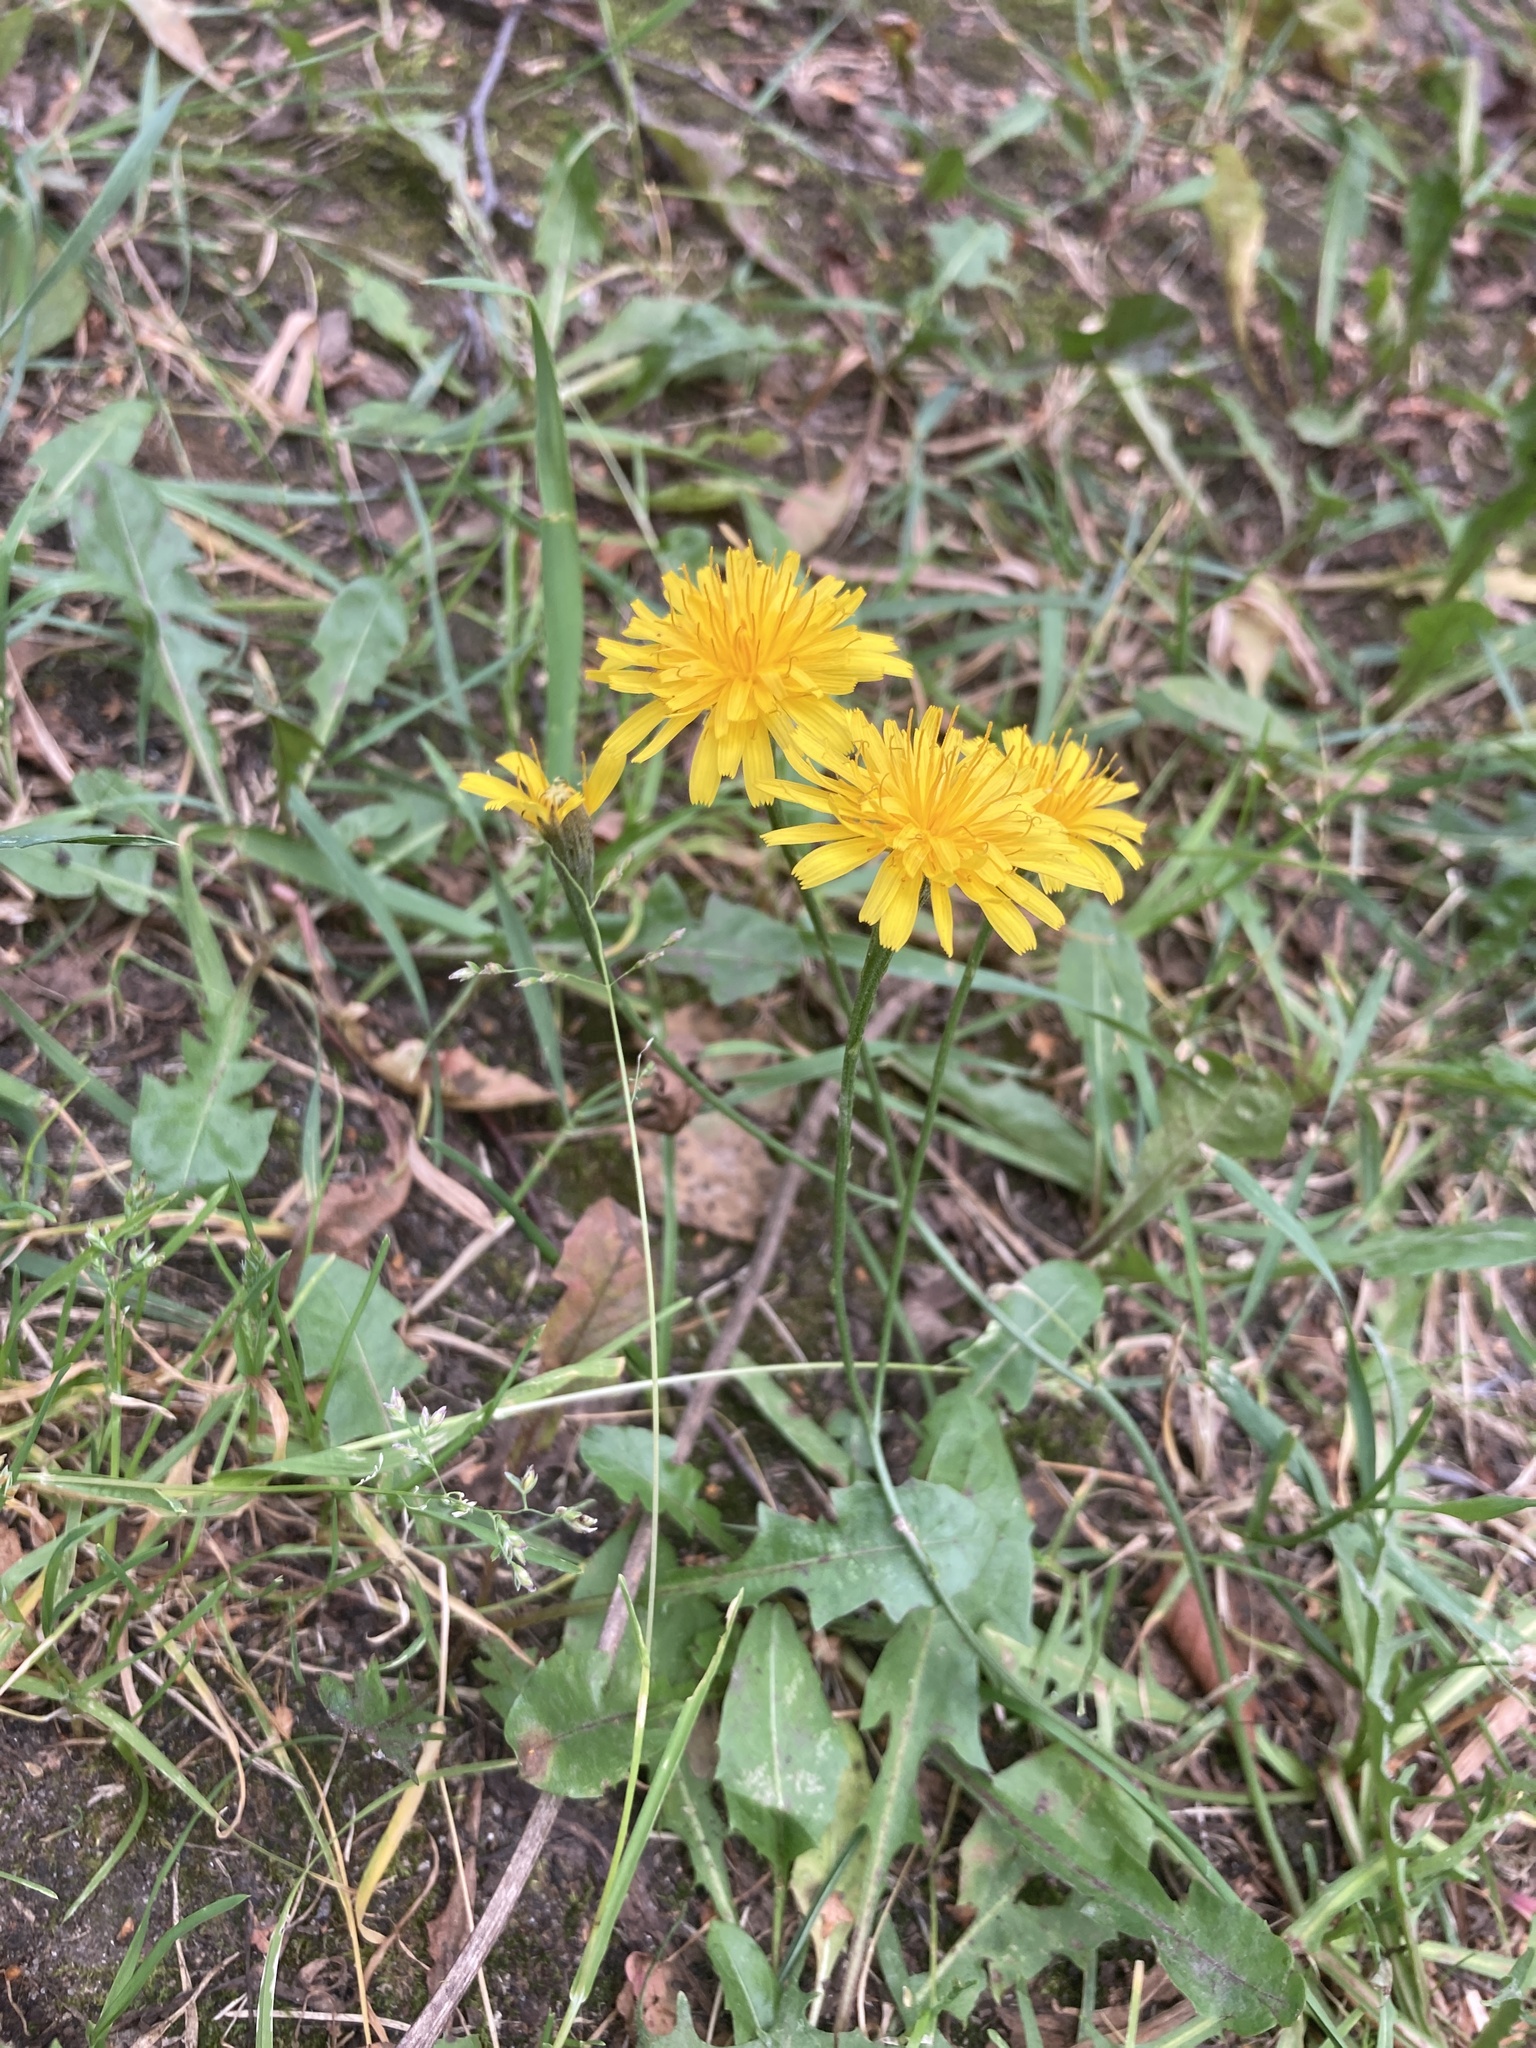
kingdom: Plantae
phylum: Tracheophyta
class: Magnoliopsida
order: Asterales
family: Asteraceae
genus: Scorzoneroides
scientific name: Scorzoneroides autumnalis
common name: Autumn hawkbit
